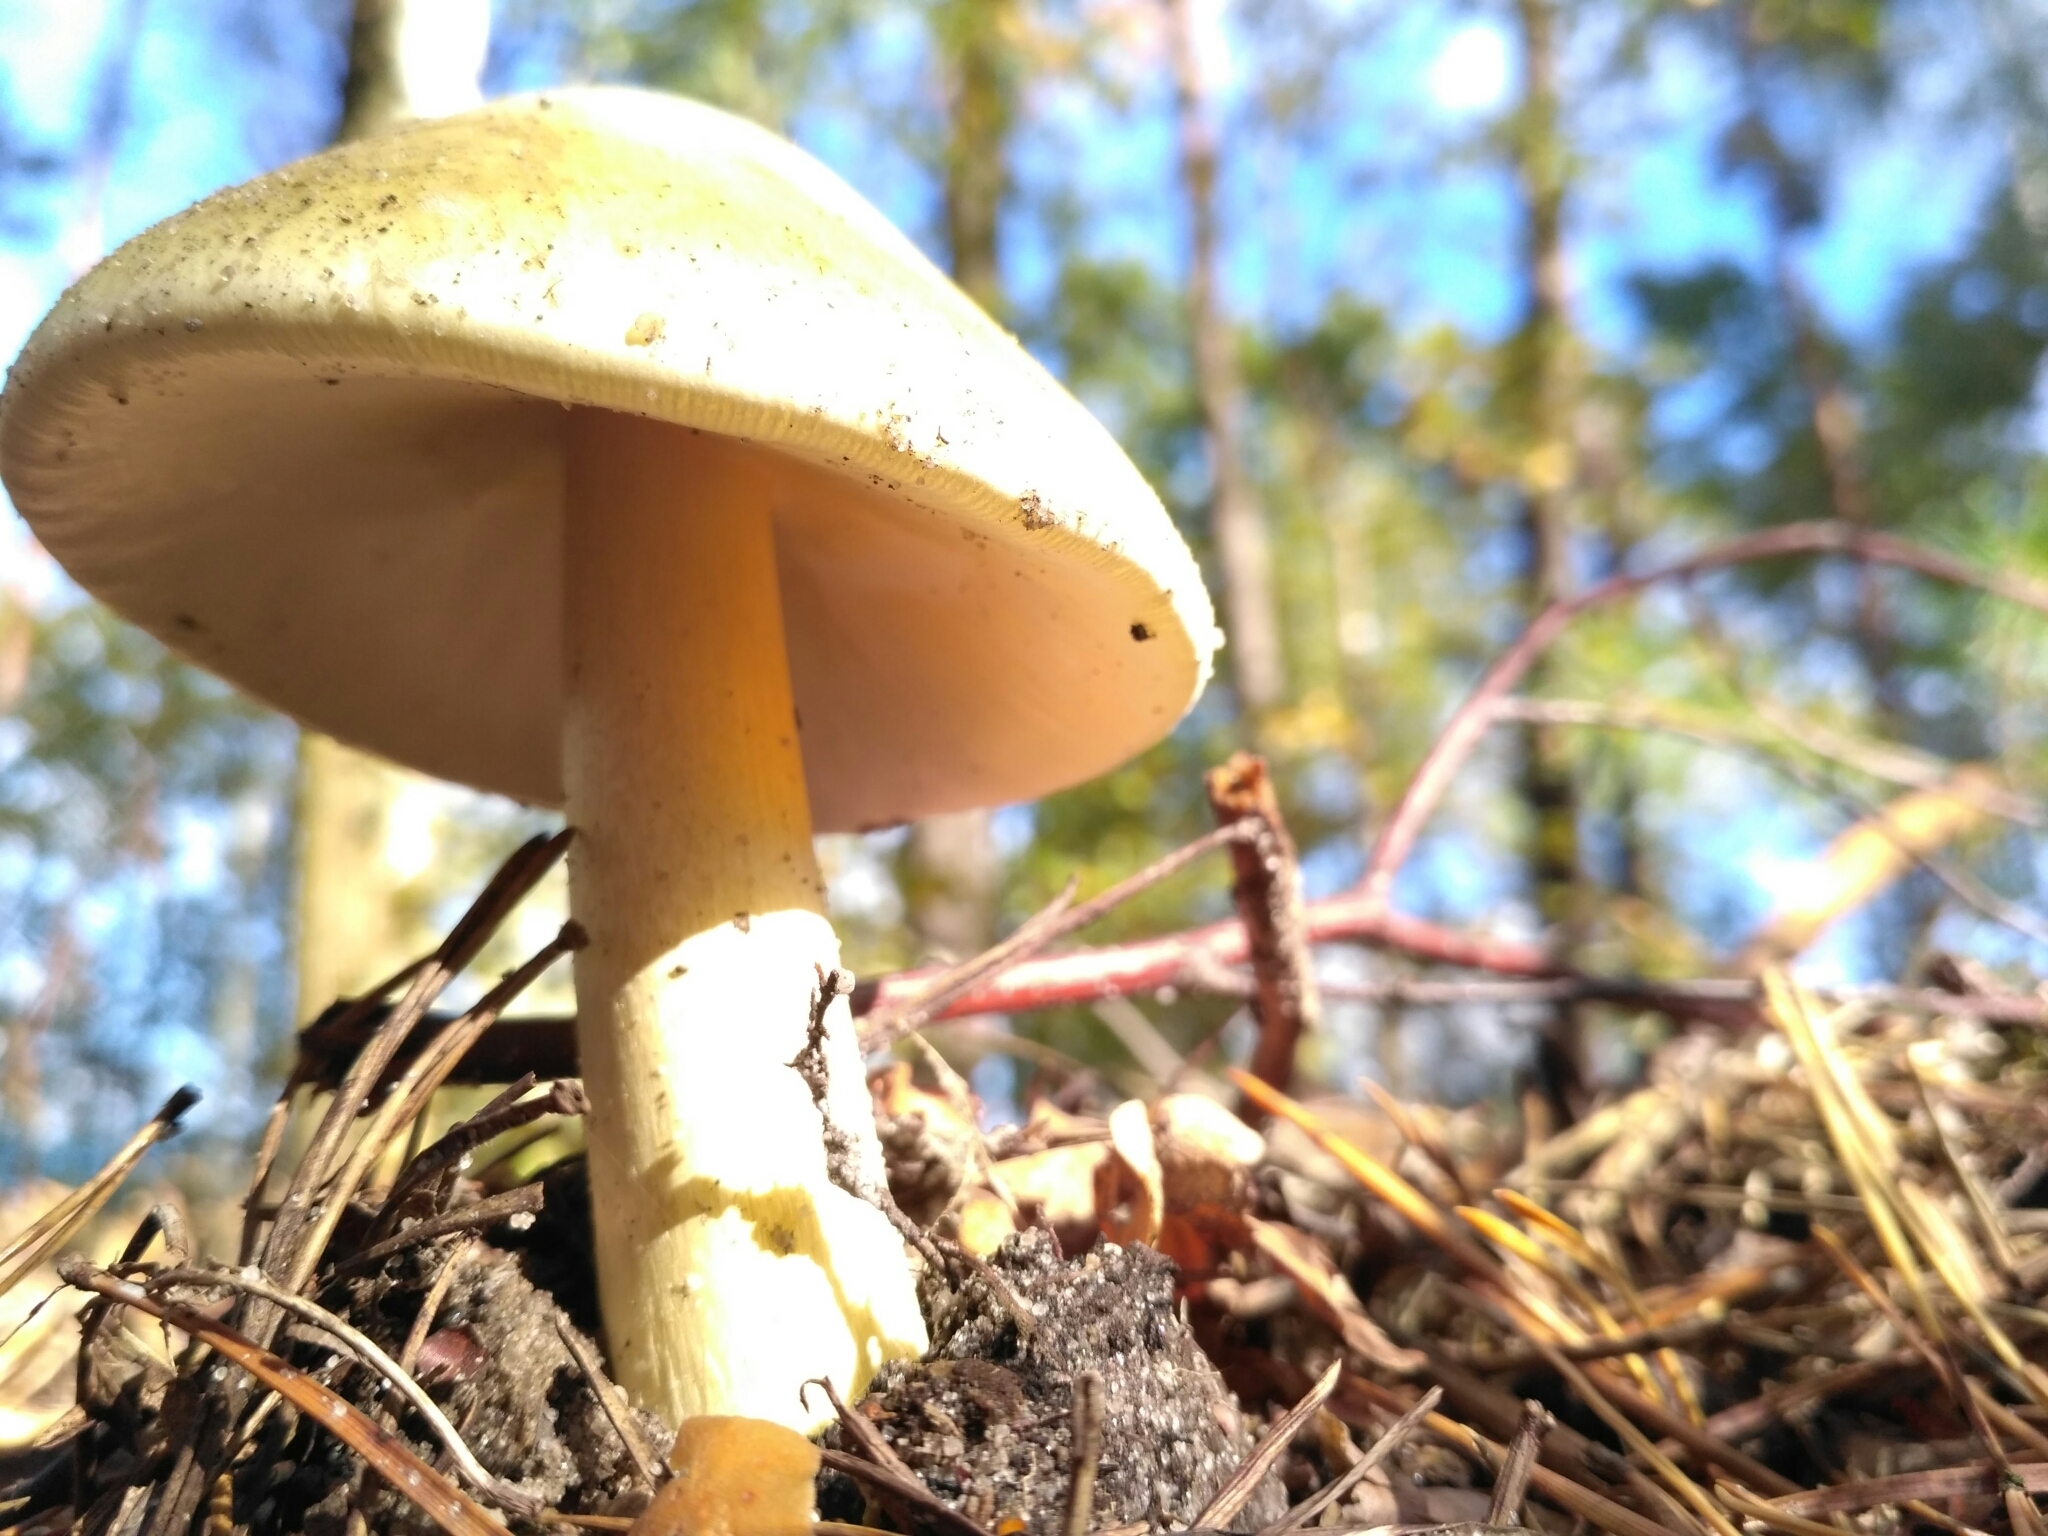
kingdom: Fungi
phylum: Basidiomycota
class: Agaricomycetes
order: Agaricales
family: Amanitaceae
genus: Amanita
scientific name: Amanita phalloides
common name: Death cap
